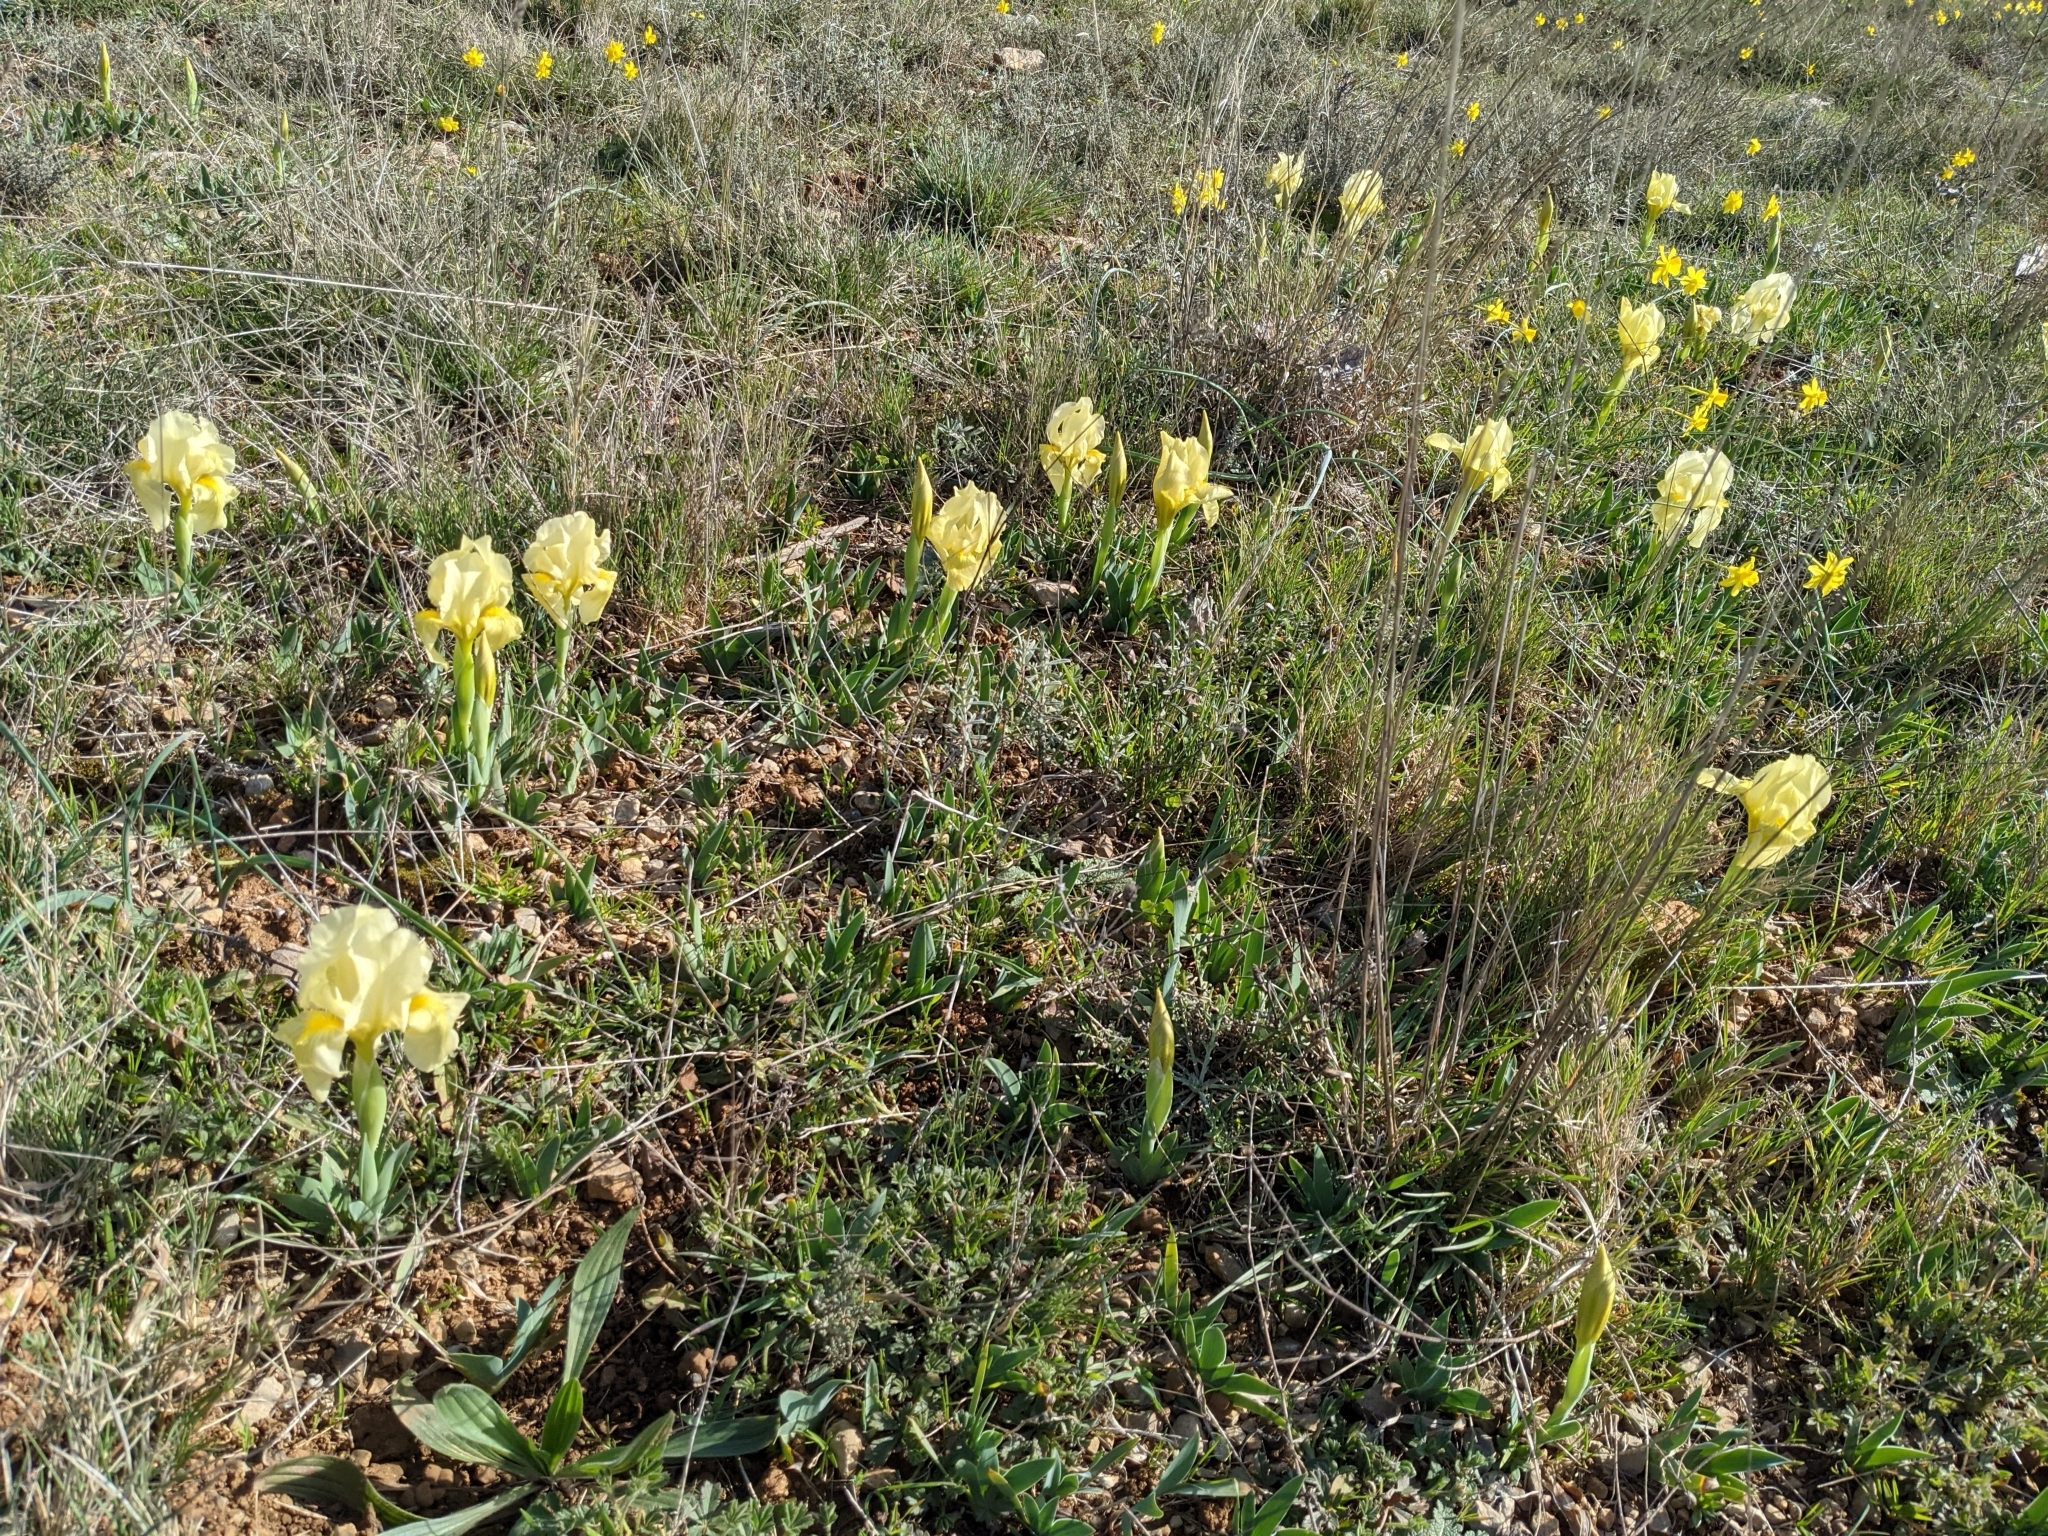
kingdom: Plantae
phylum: Tracheophyta
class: Liliopsida
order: Asparagales
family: Iridaceae
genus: Iris
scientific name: Iris lutescens
